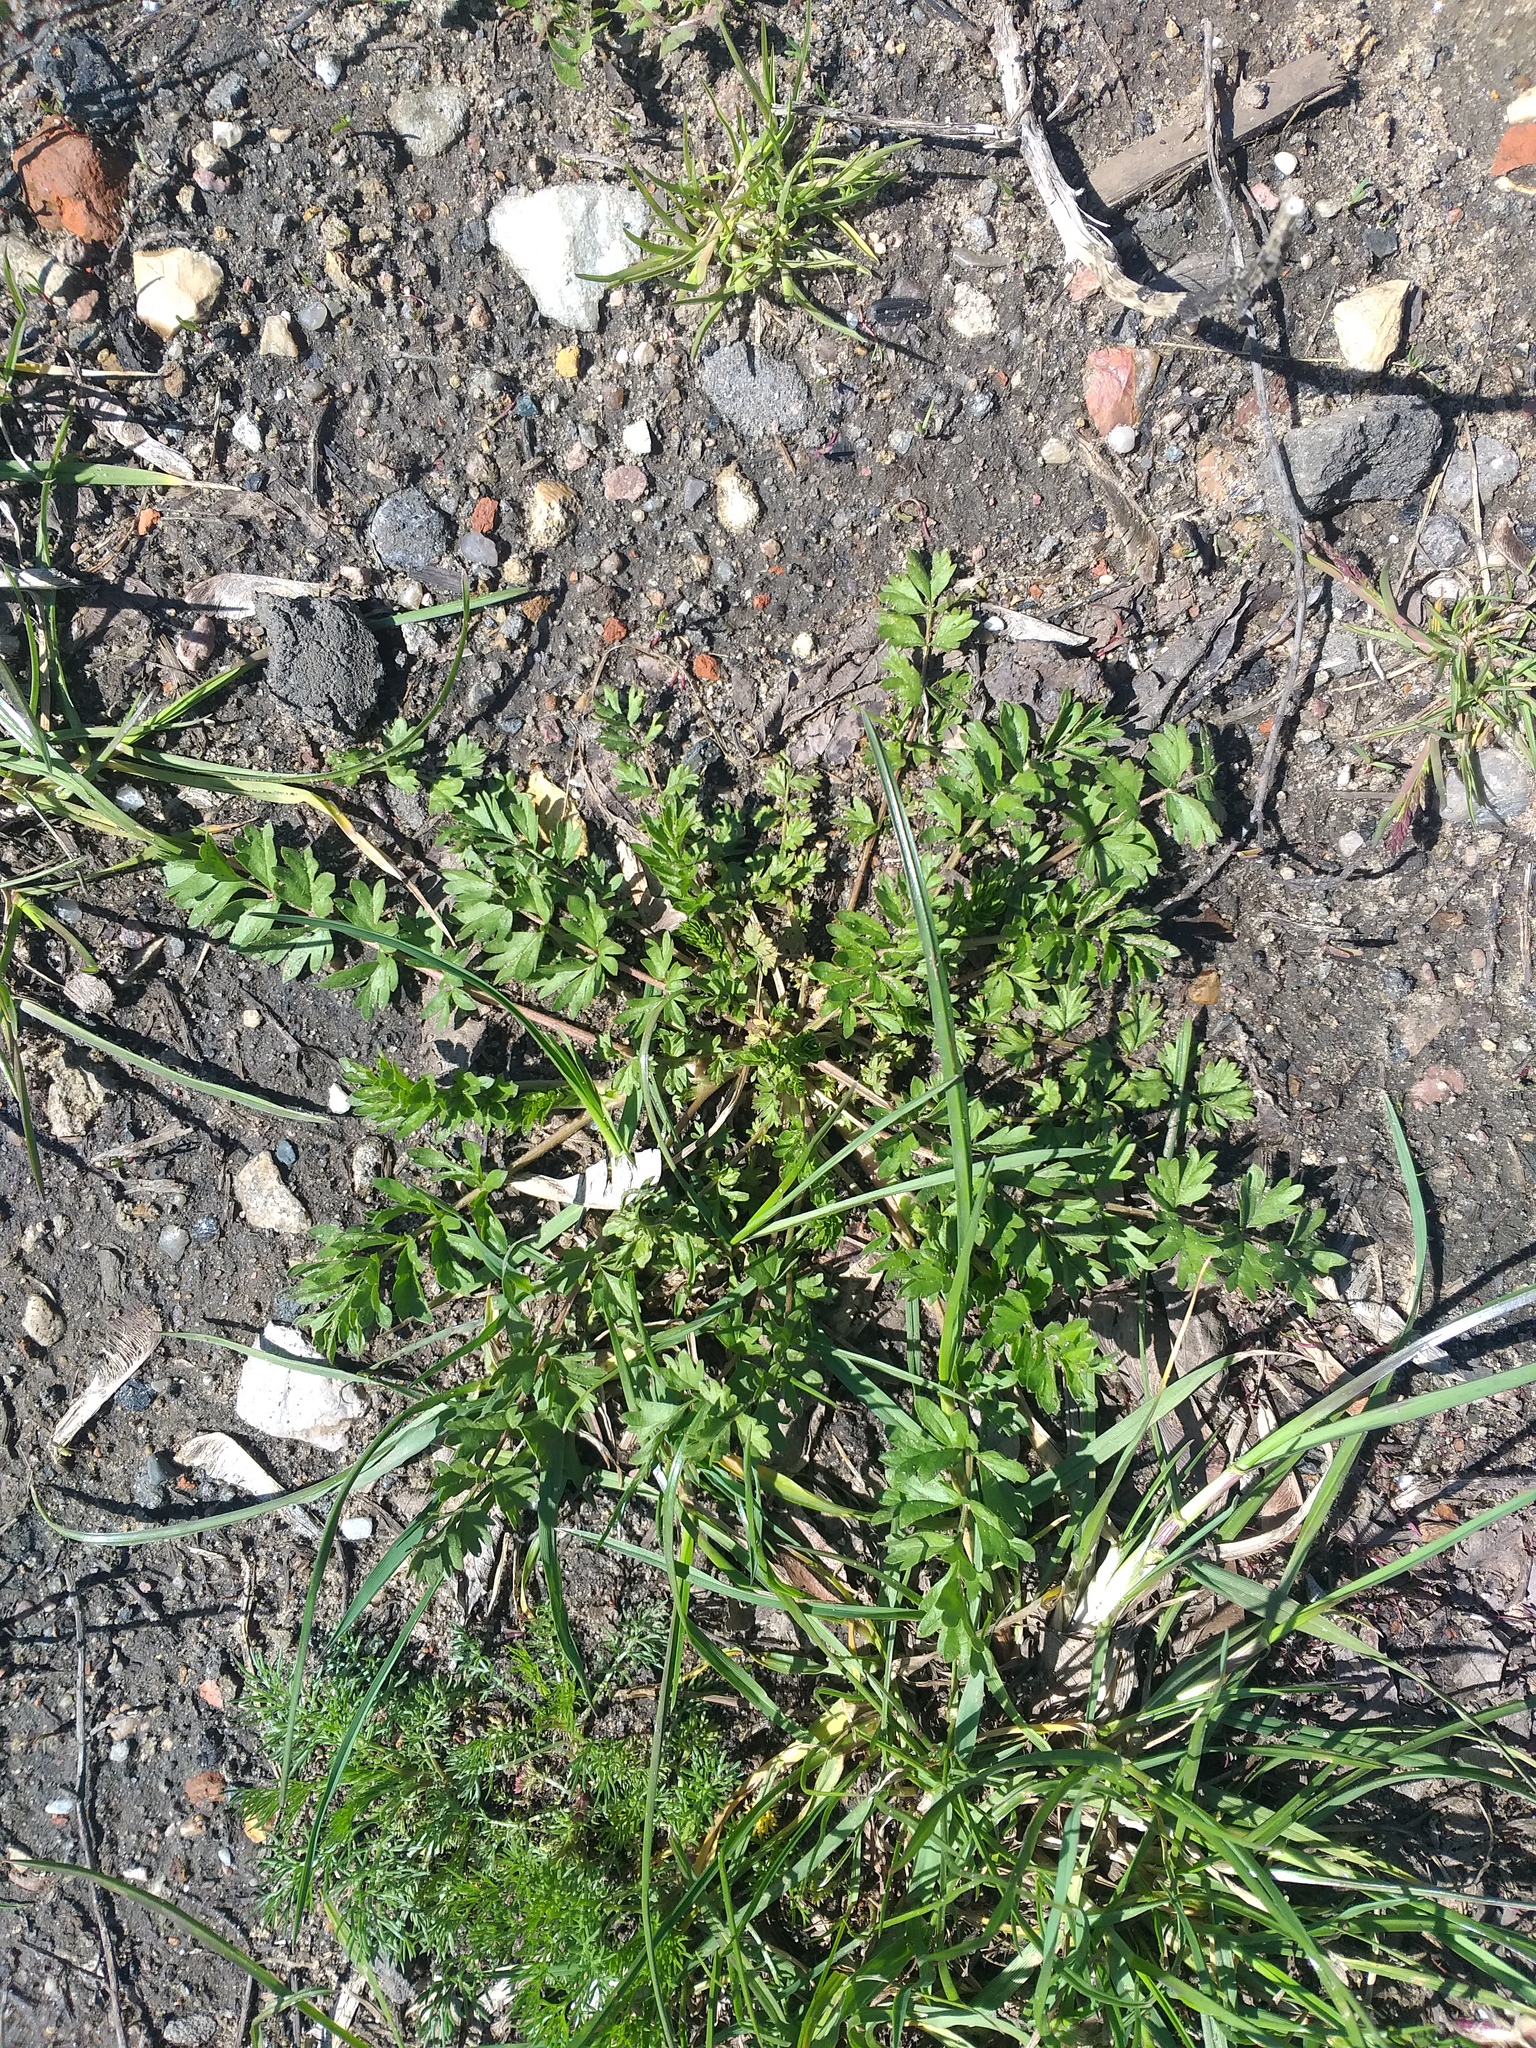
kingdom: Plantae
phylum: Tracheophyta
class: Magnoliopsida
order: Rosales
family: Rosaceae
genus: Potentilla
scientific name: Potentilla supina
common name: Prostrate cinquefoil
